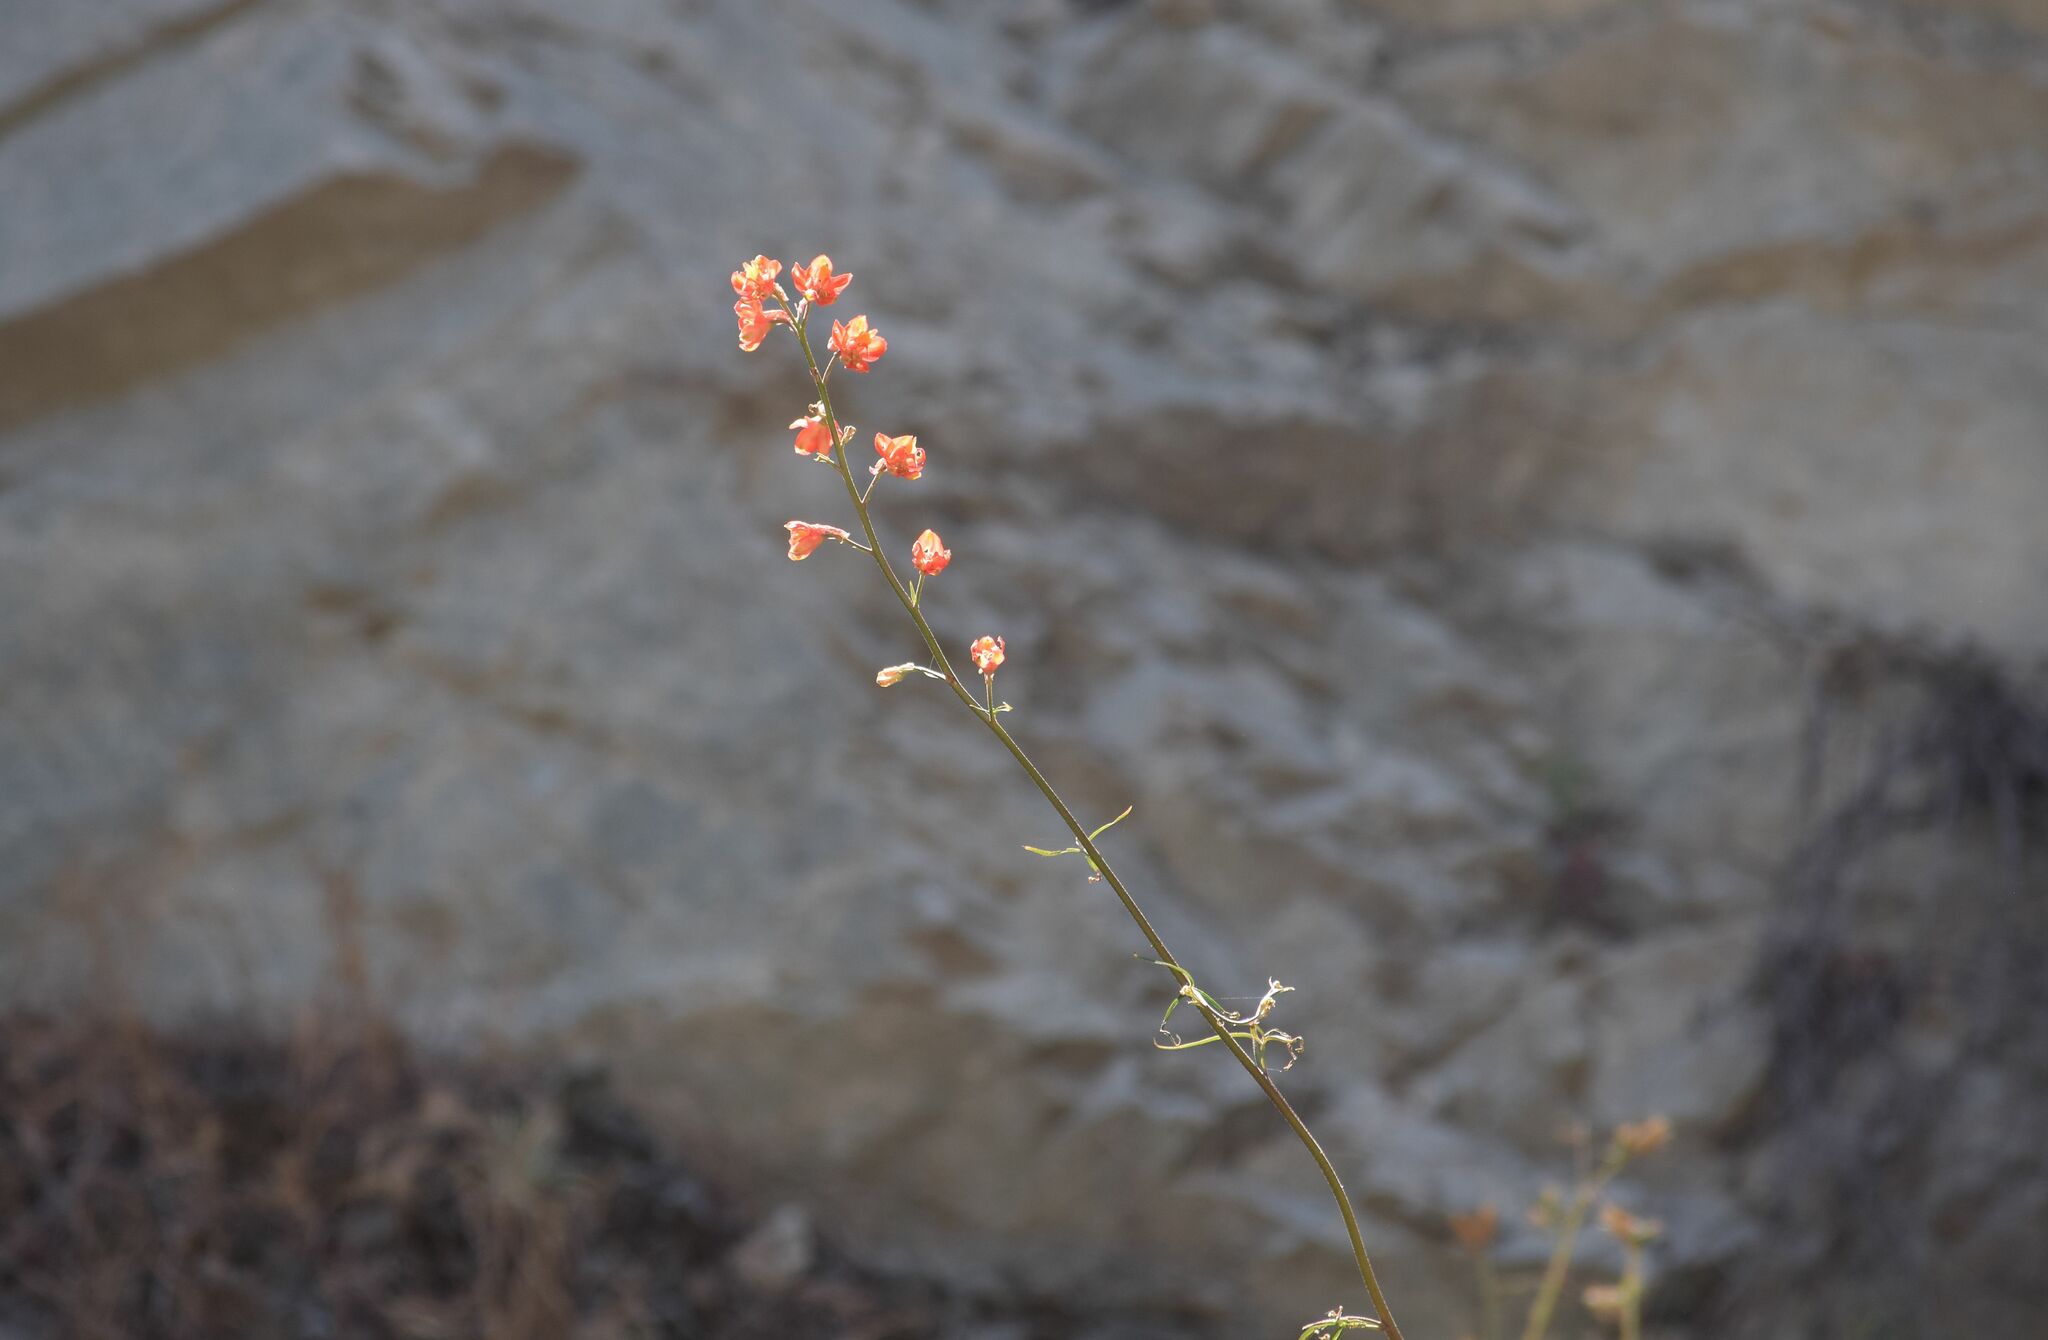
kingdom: Plantae
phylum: Tracheophyta
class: Magnoliopsida
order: Ranunculales
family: Ranunculaceae
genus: Delphinium
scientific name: Delphinium cardinale
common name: Scarlet larkspur
